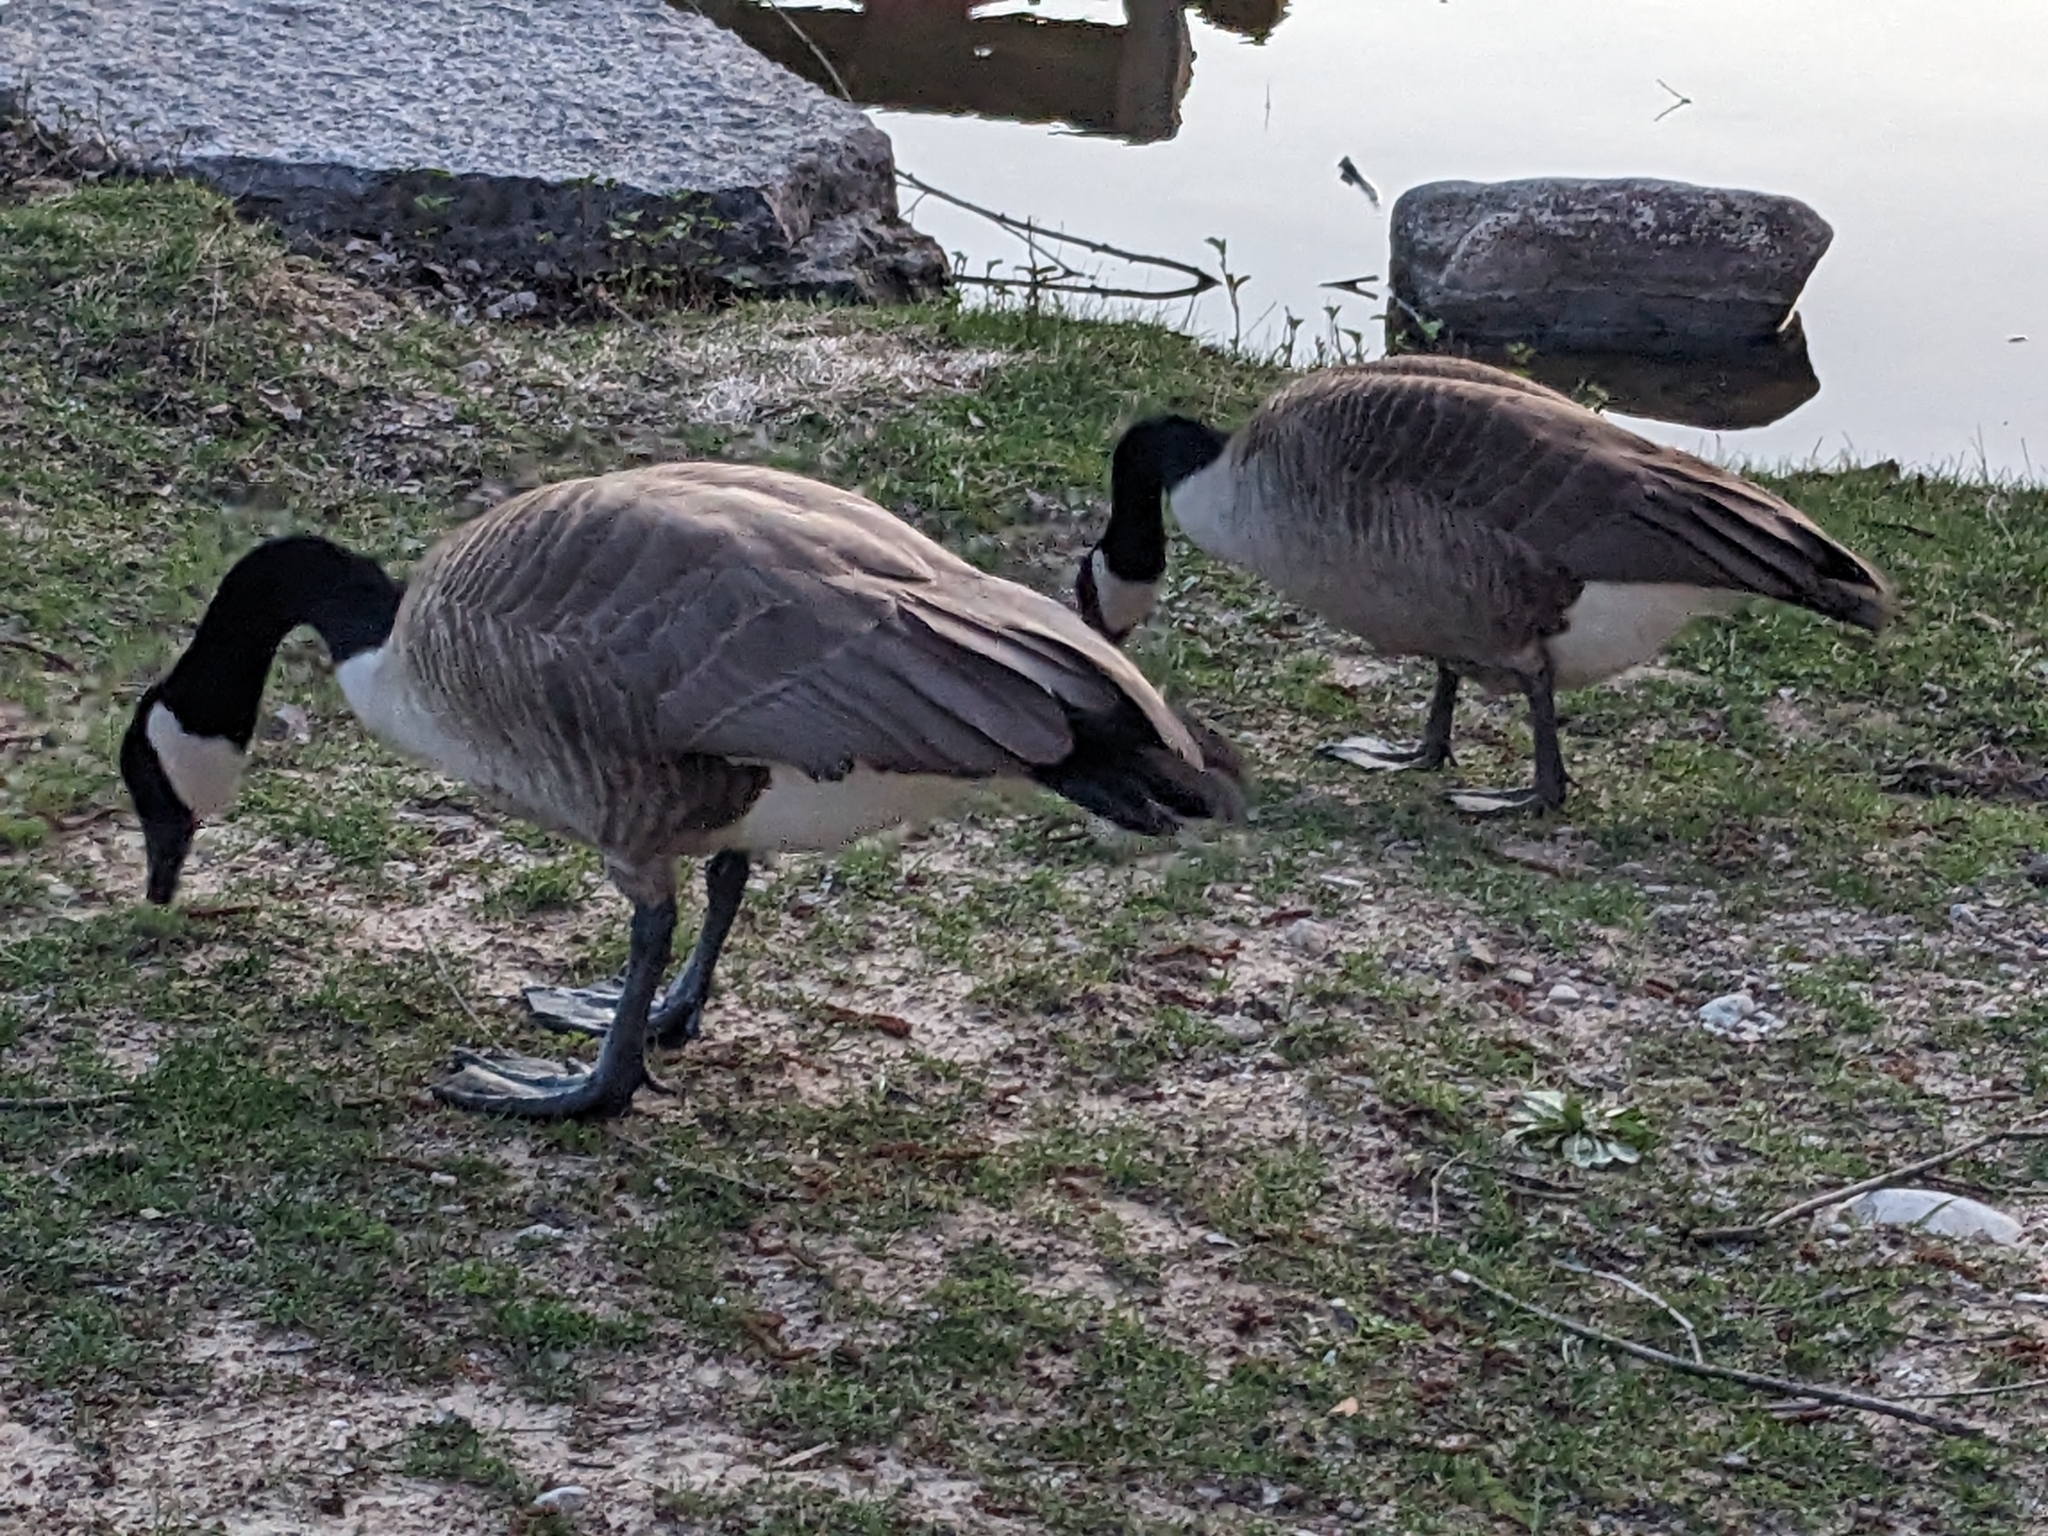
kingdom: Animalia
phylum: Chordata
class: Aves
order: Anseriformes
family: Anatidae
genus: Branta
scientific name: Branta canadensis
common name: Canada goose
